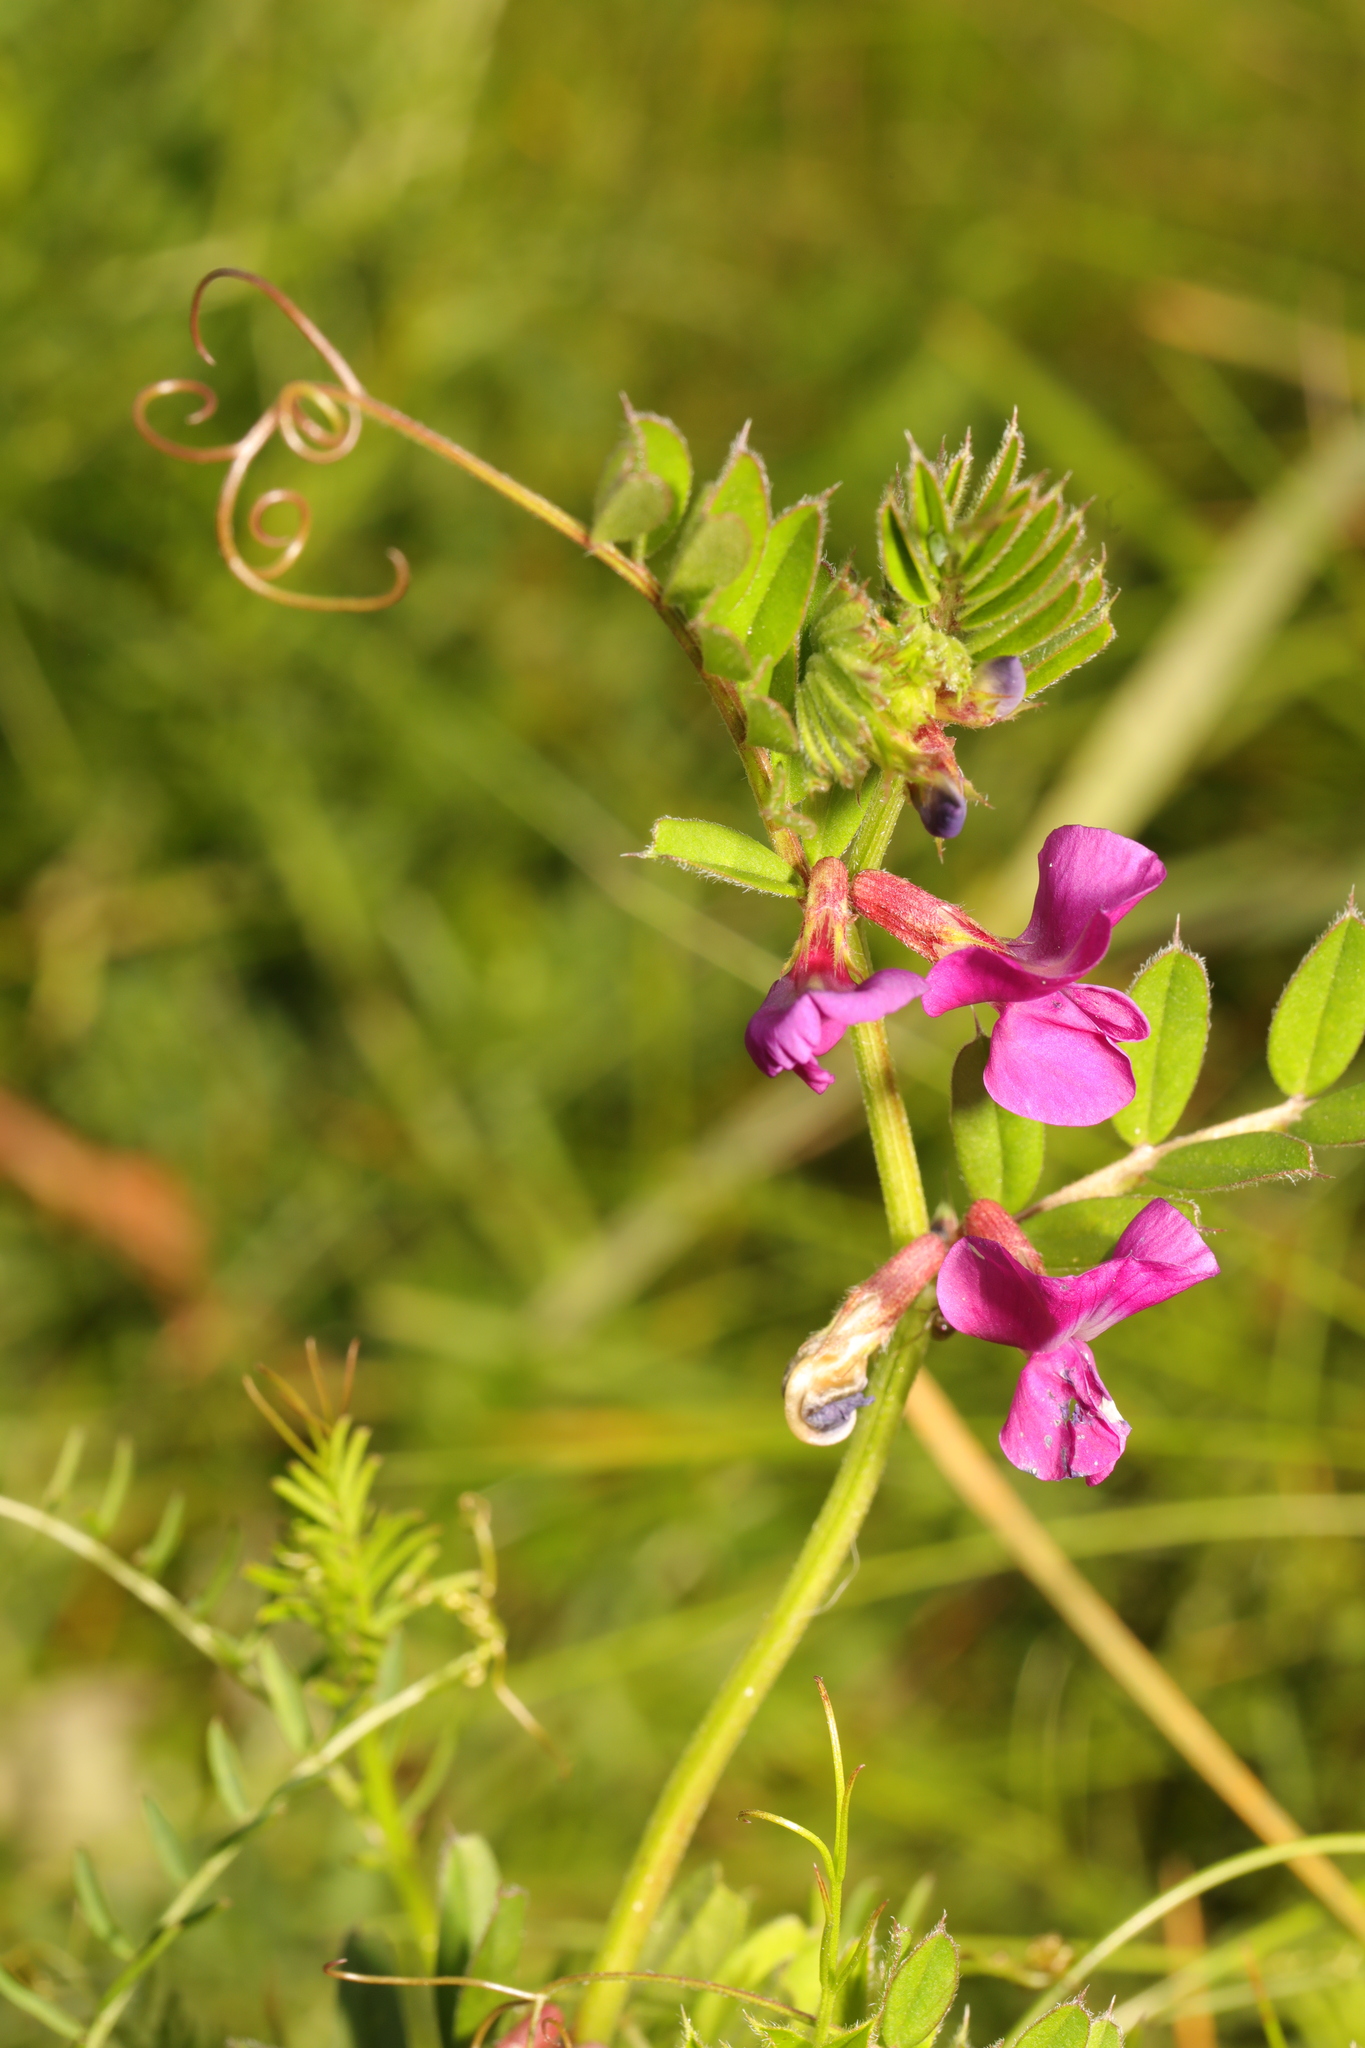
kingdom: Plantae
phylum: Tracheophyta
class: Magnoliopsida
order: Fabales
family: Fabaceae
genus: Vicia
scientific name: Vicia sativa
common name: Garden vetch
